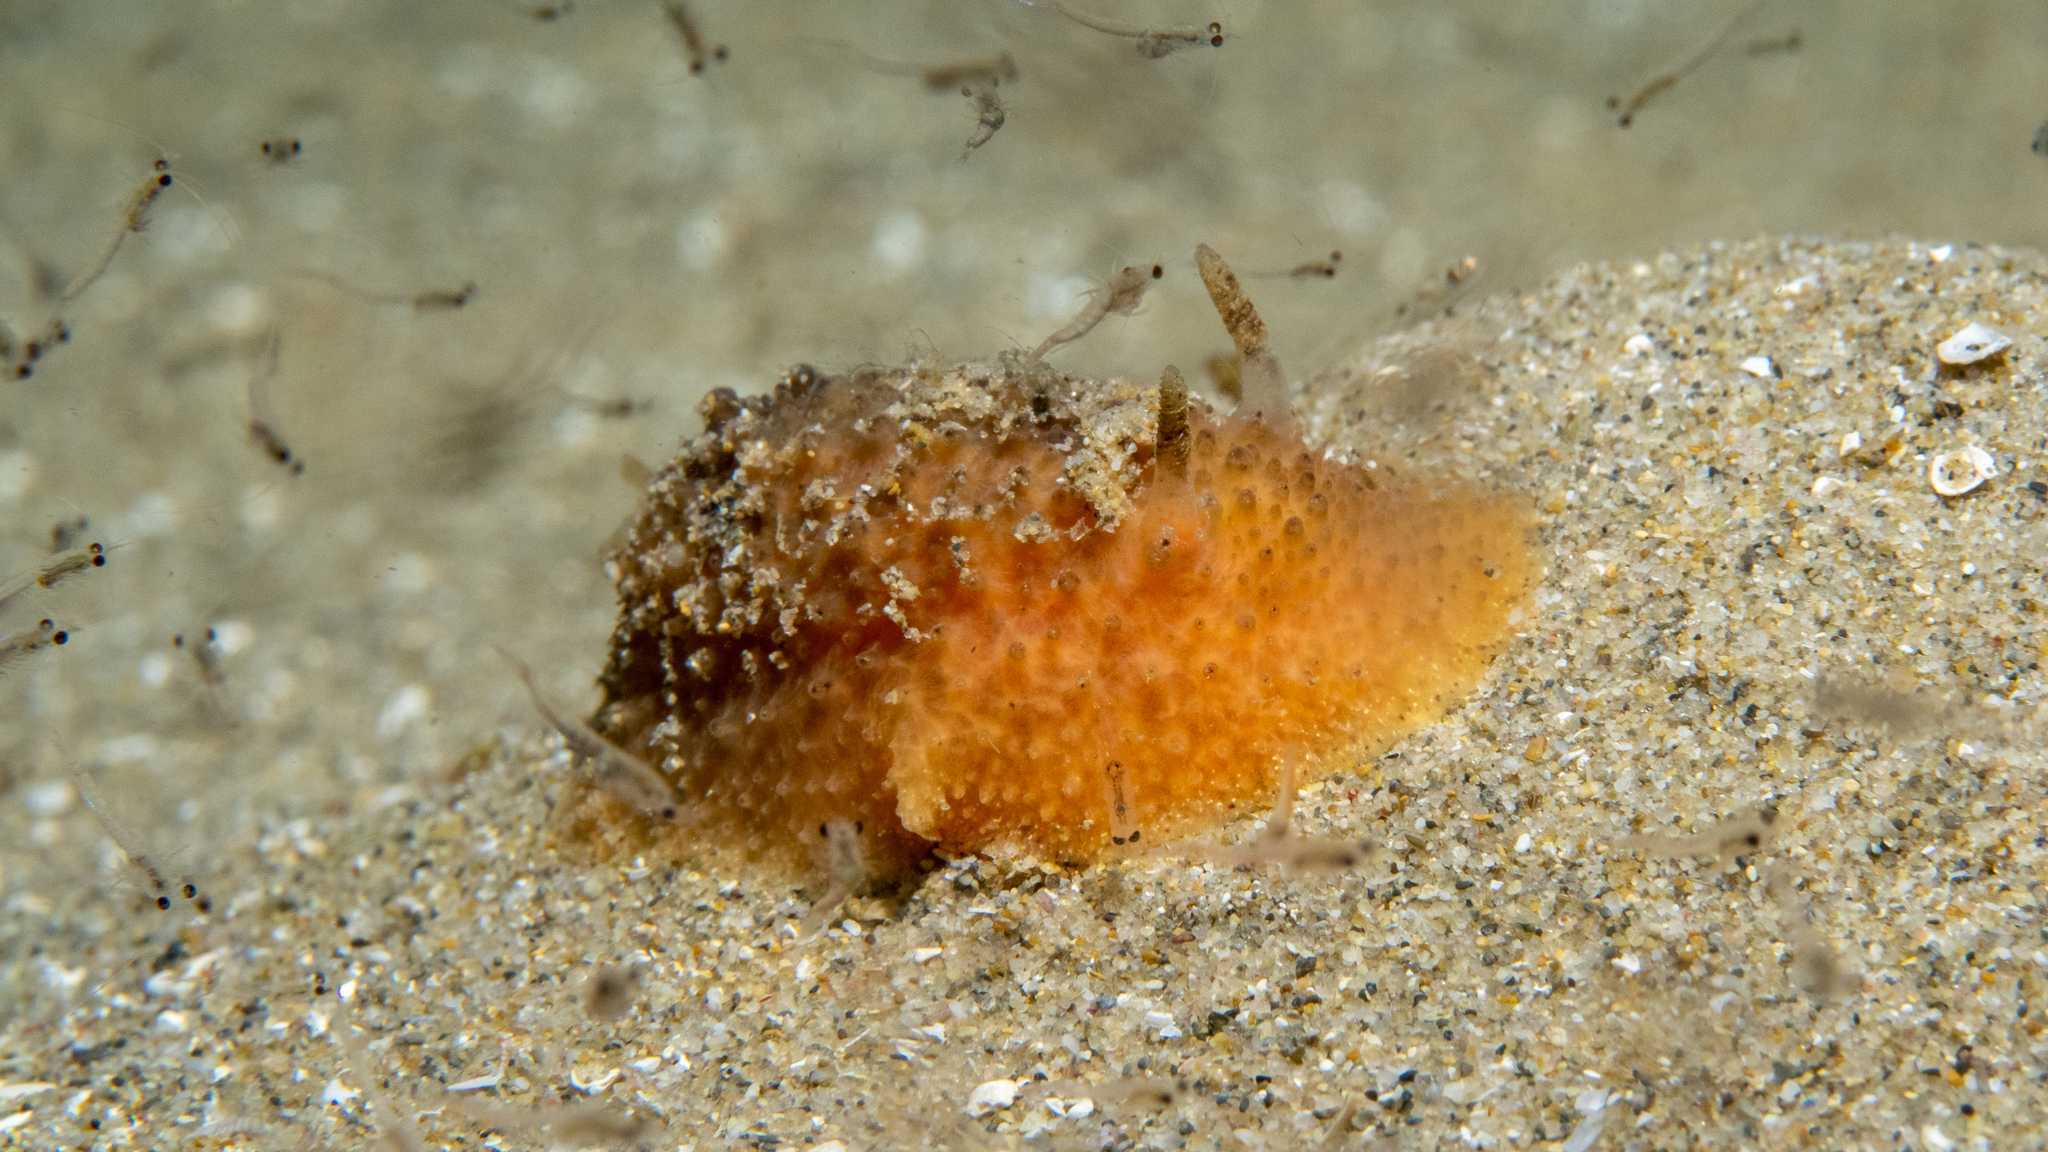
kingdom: Animalia
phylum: Mollusca
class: Gastropoda
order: Nudibranchia
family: Dorididae
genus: Doris
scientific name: Doris cameroni
